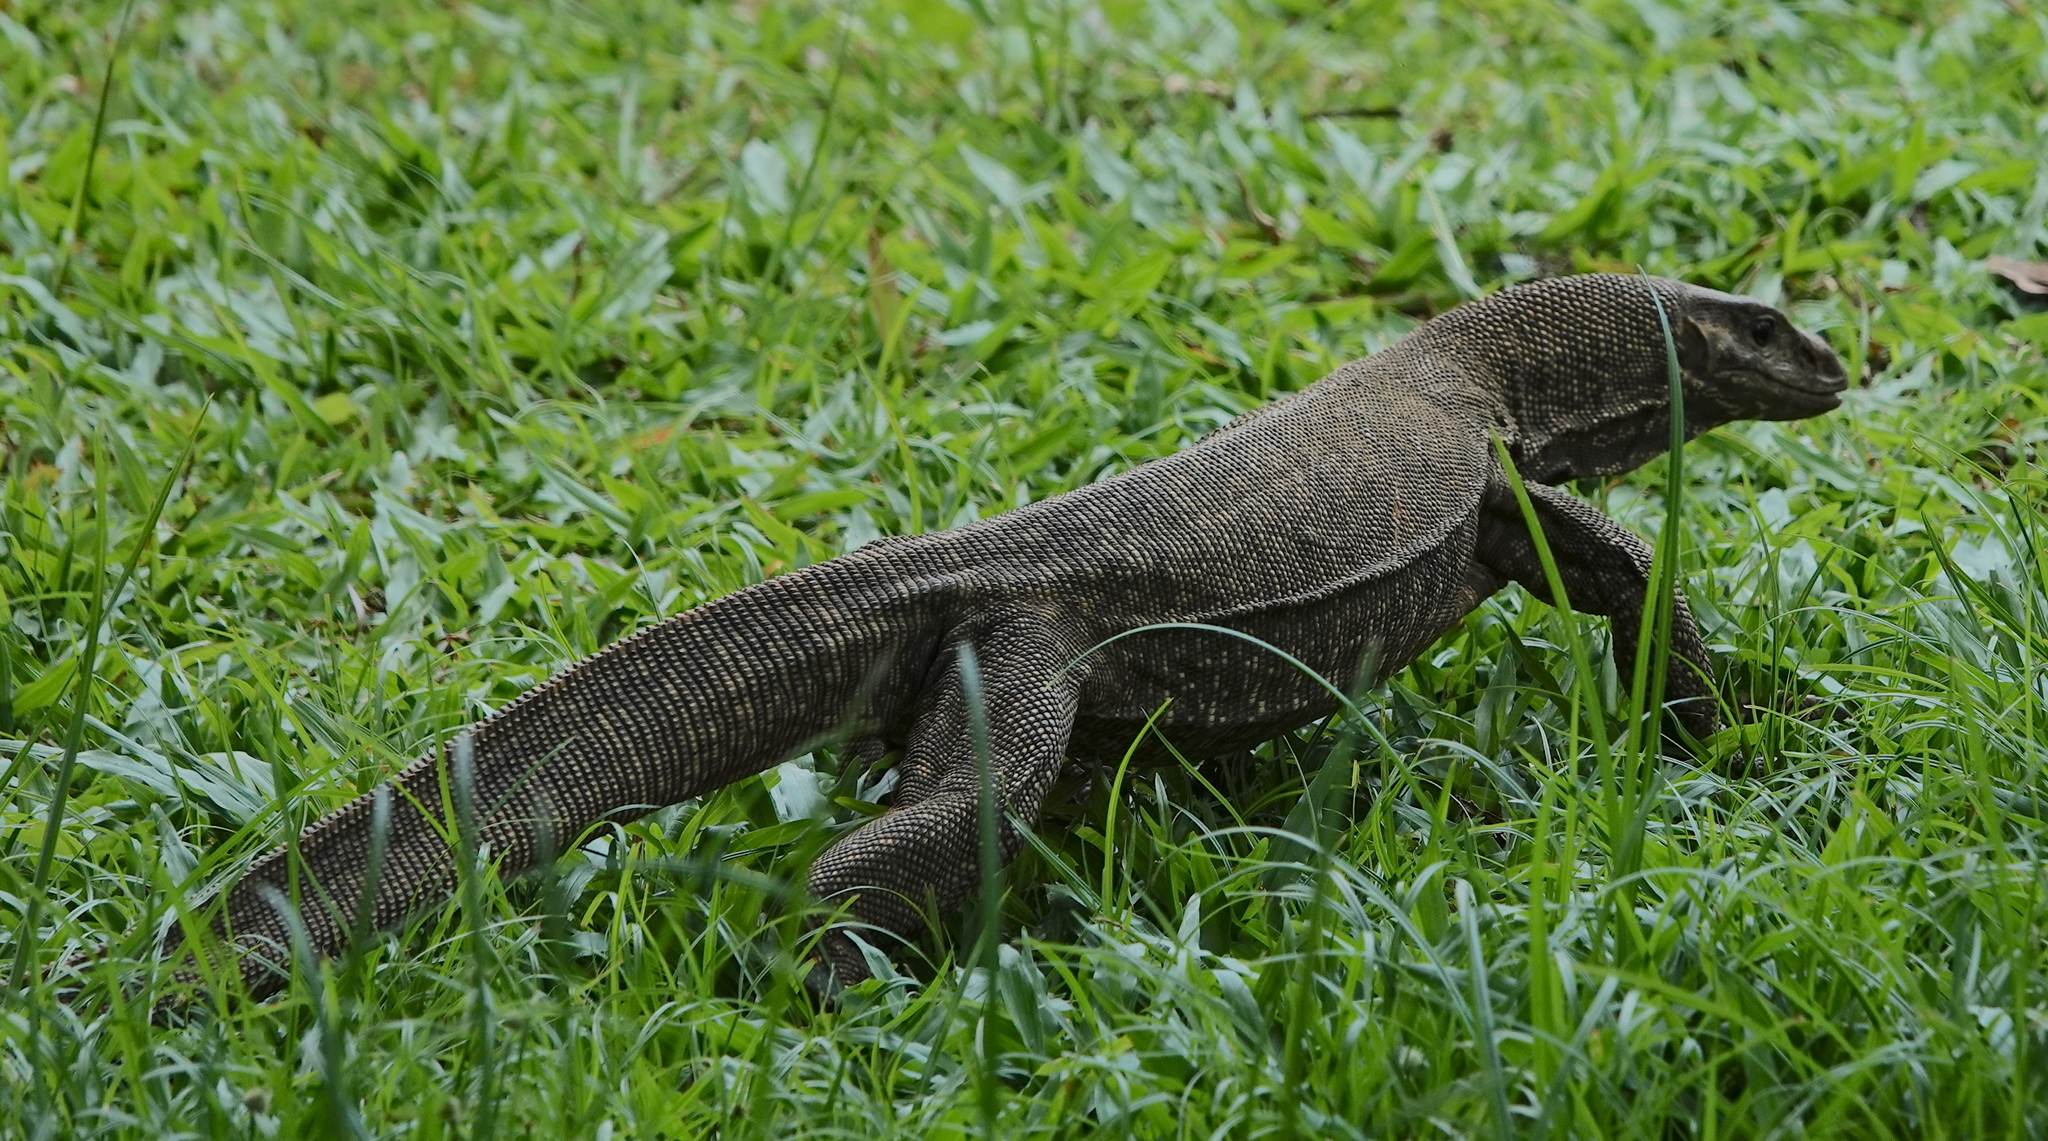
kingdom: Animalia
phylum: Chordata
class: Squamata
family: Varanidae
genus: Varanus
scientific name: Varanus nebulosus
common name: Clouded monitor
